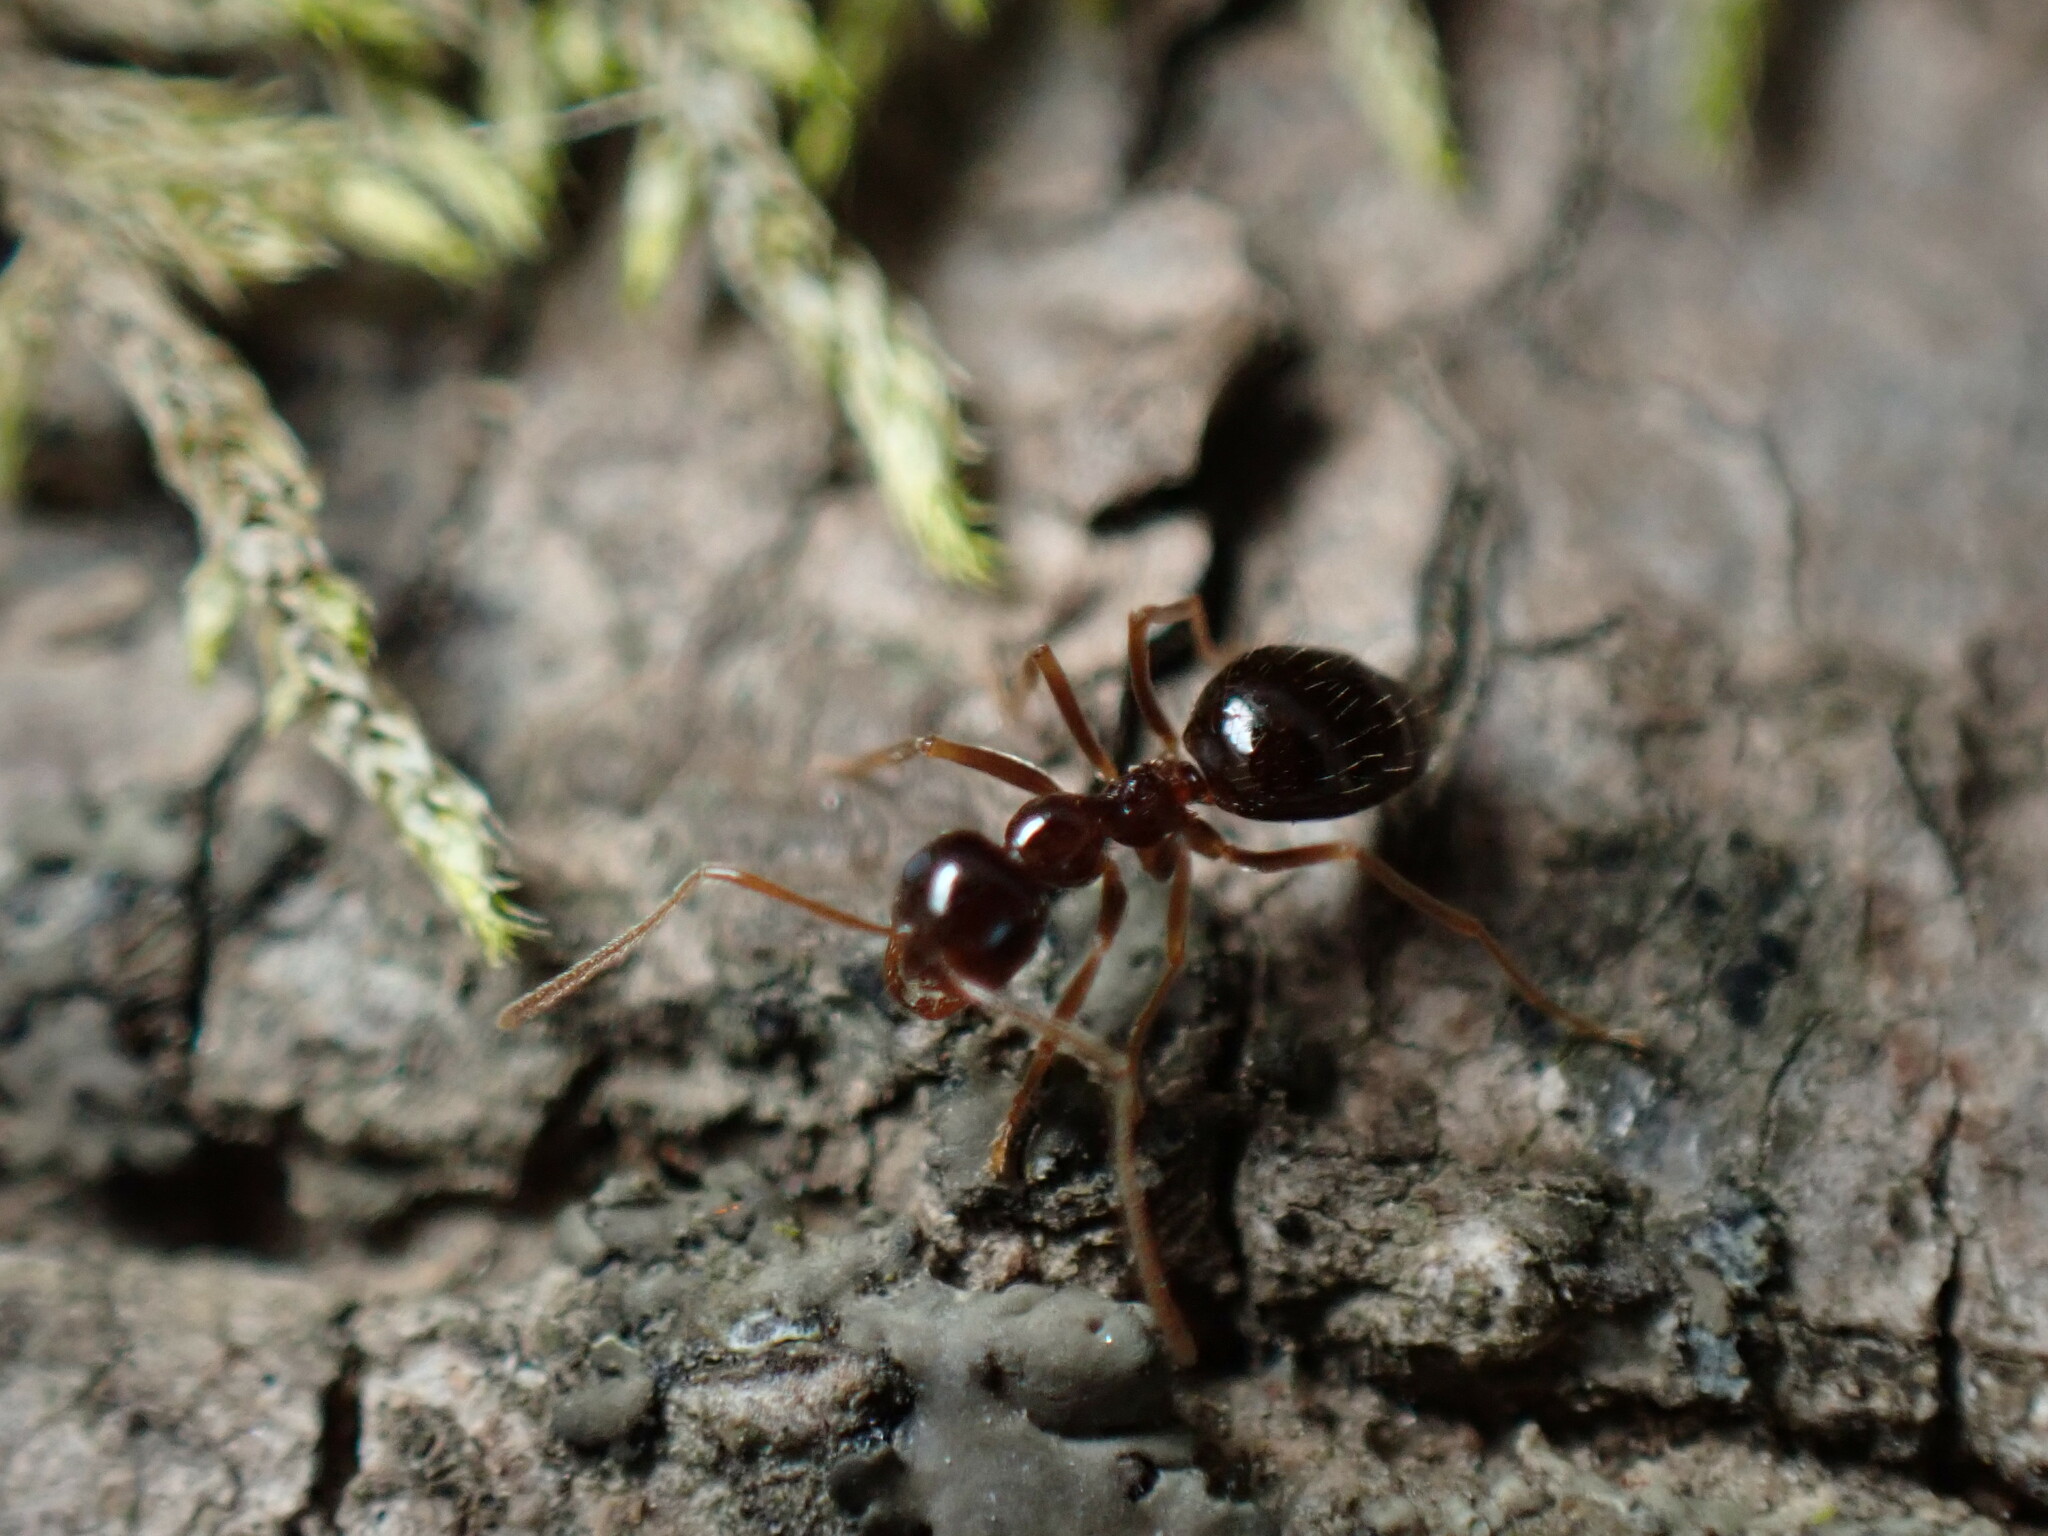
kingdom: Animalia
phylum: Arthropoda
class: Insecta
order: Hymenoptera
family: Formicidae
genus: Prenolepis
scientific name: Prenolepis imparis
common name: Small honey ant
